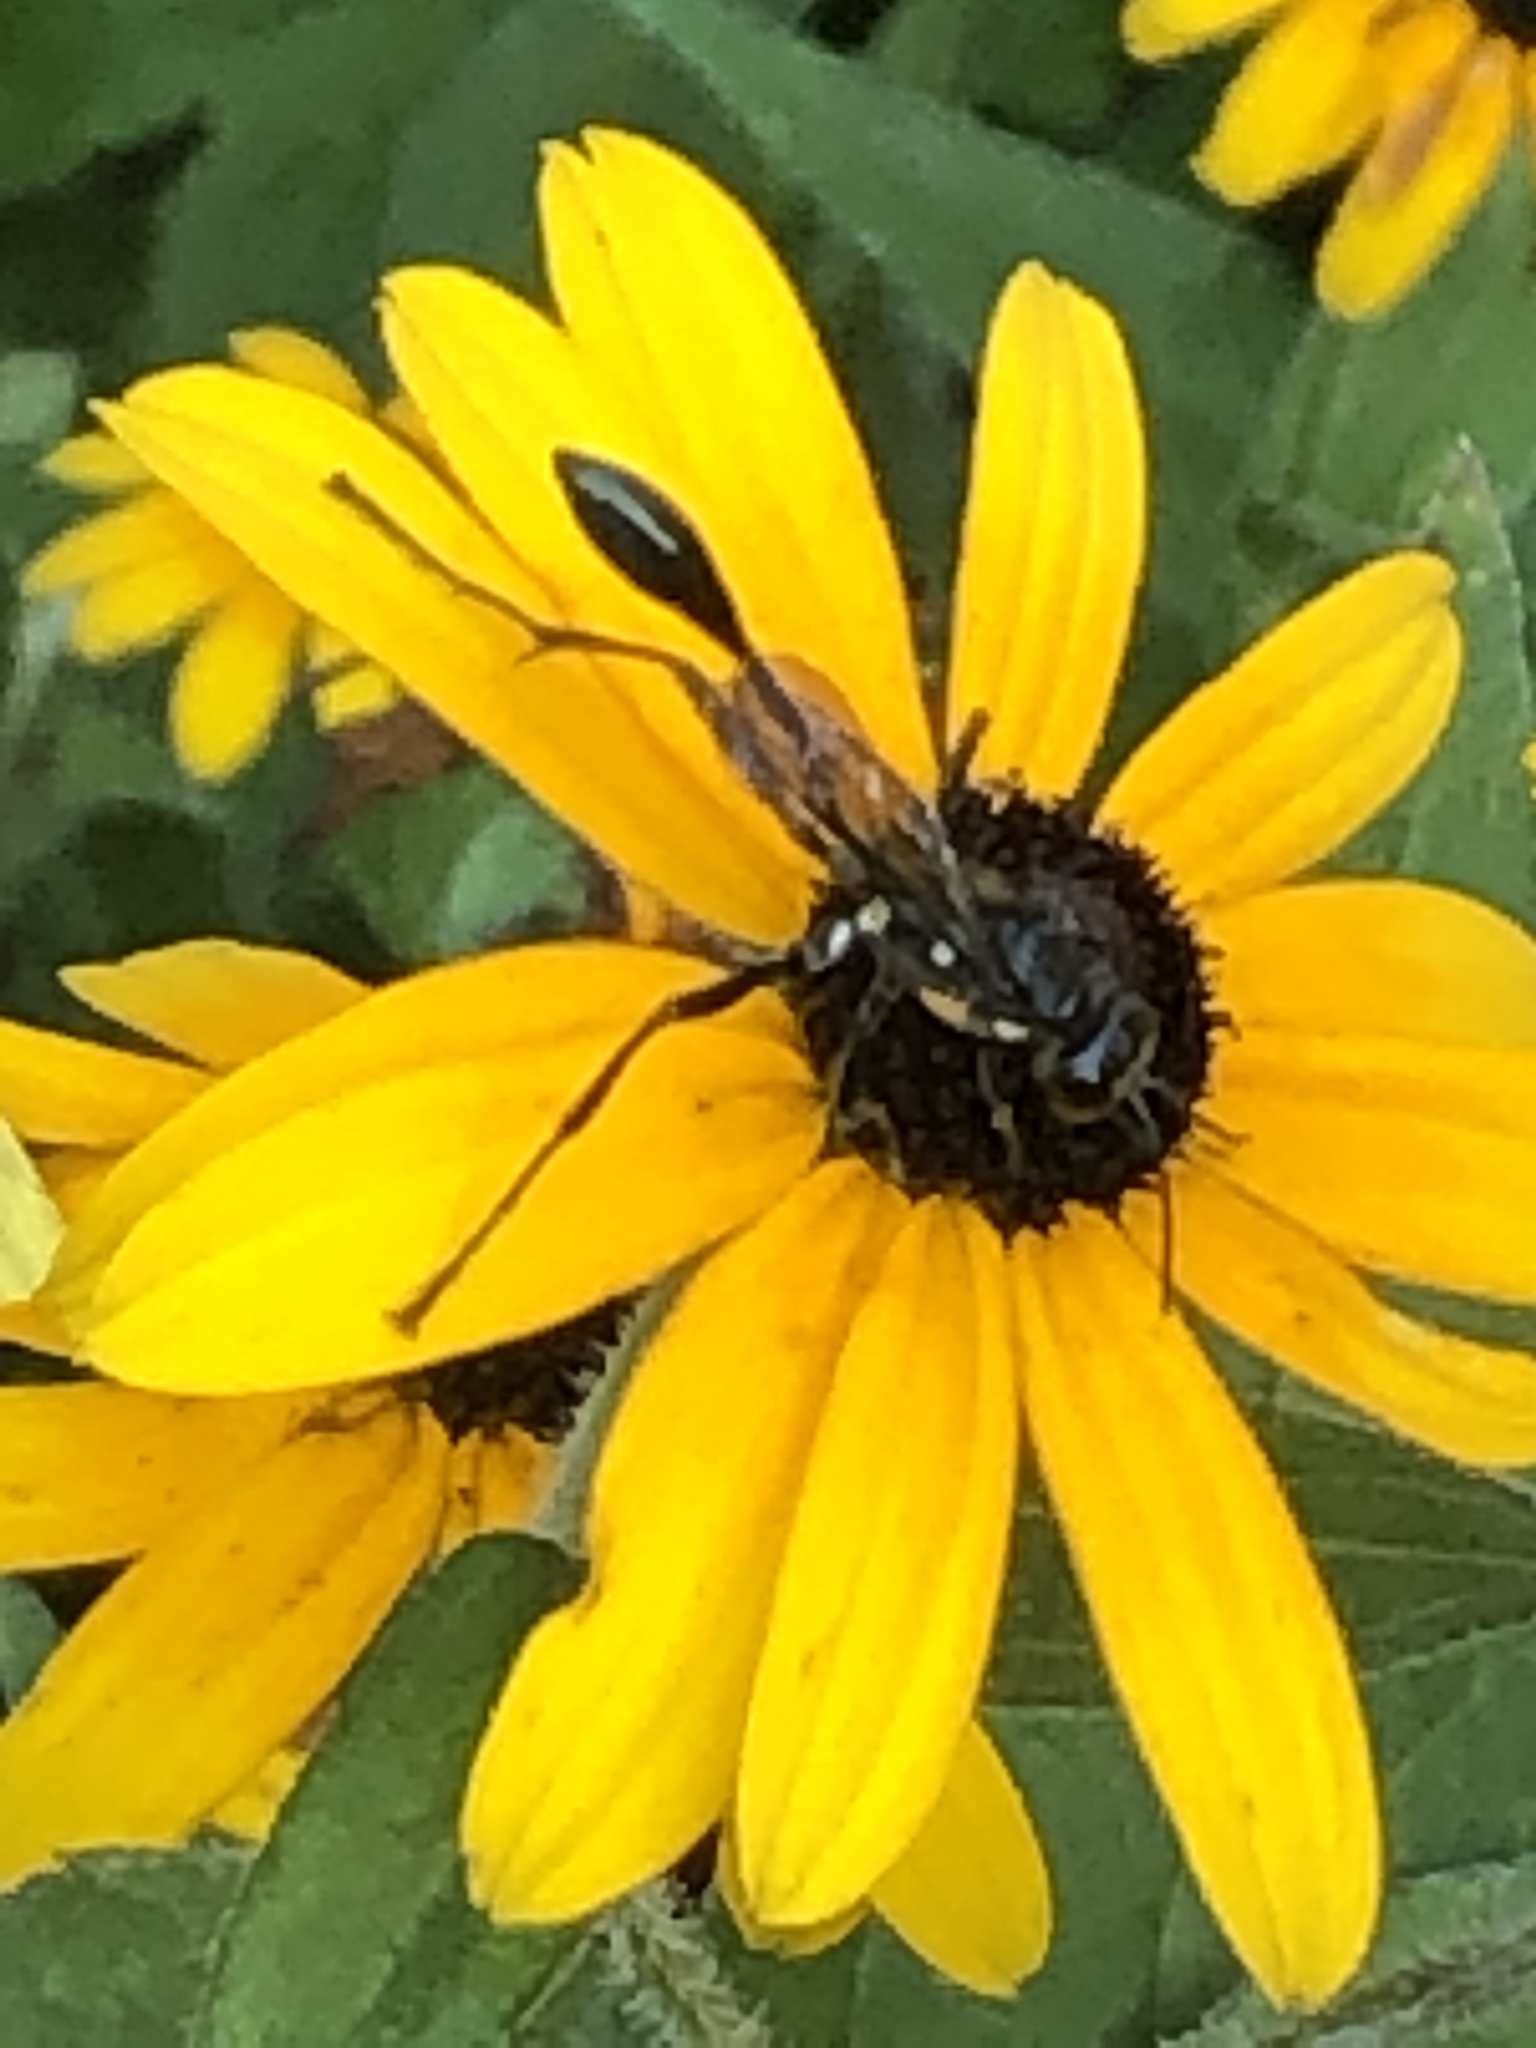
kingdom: Animalia
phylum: Arthropoda
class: Insecta
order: Hymenoptera
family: Sphecidae
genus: Eremnophila
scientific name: Eremnophila aureonotata
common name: Gold-marked thread-waisted wasp
